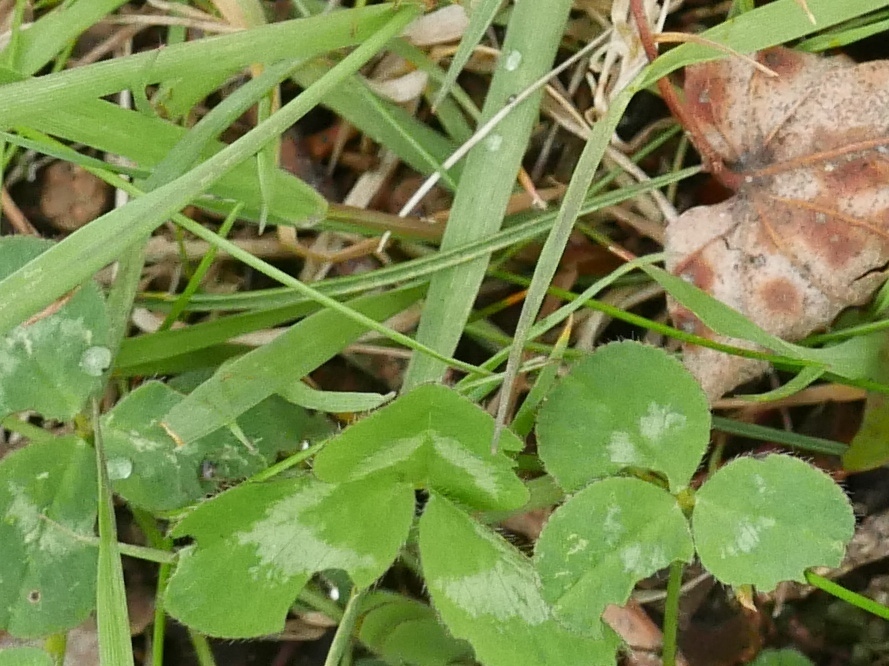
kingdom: Plantae
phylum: Tracheophyta
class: Magnoliopsida
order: Fabales
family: Fabaceae
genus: Trifolium
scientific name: Trifolium repens
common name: White clover
